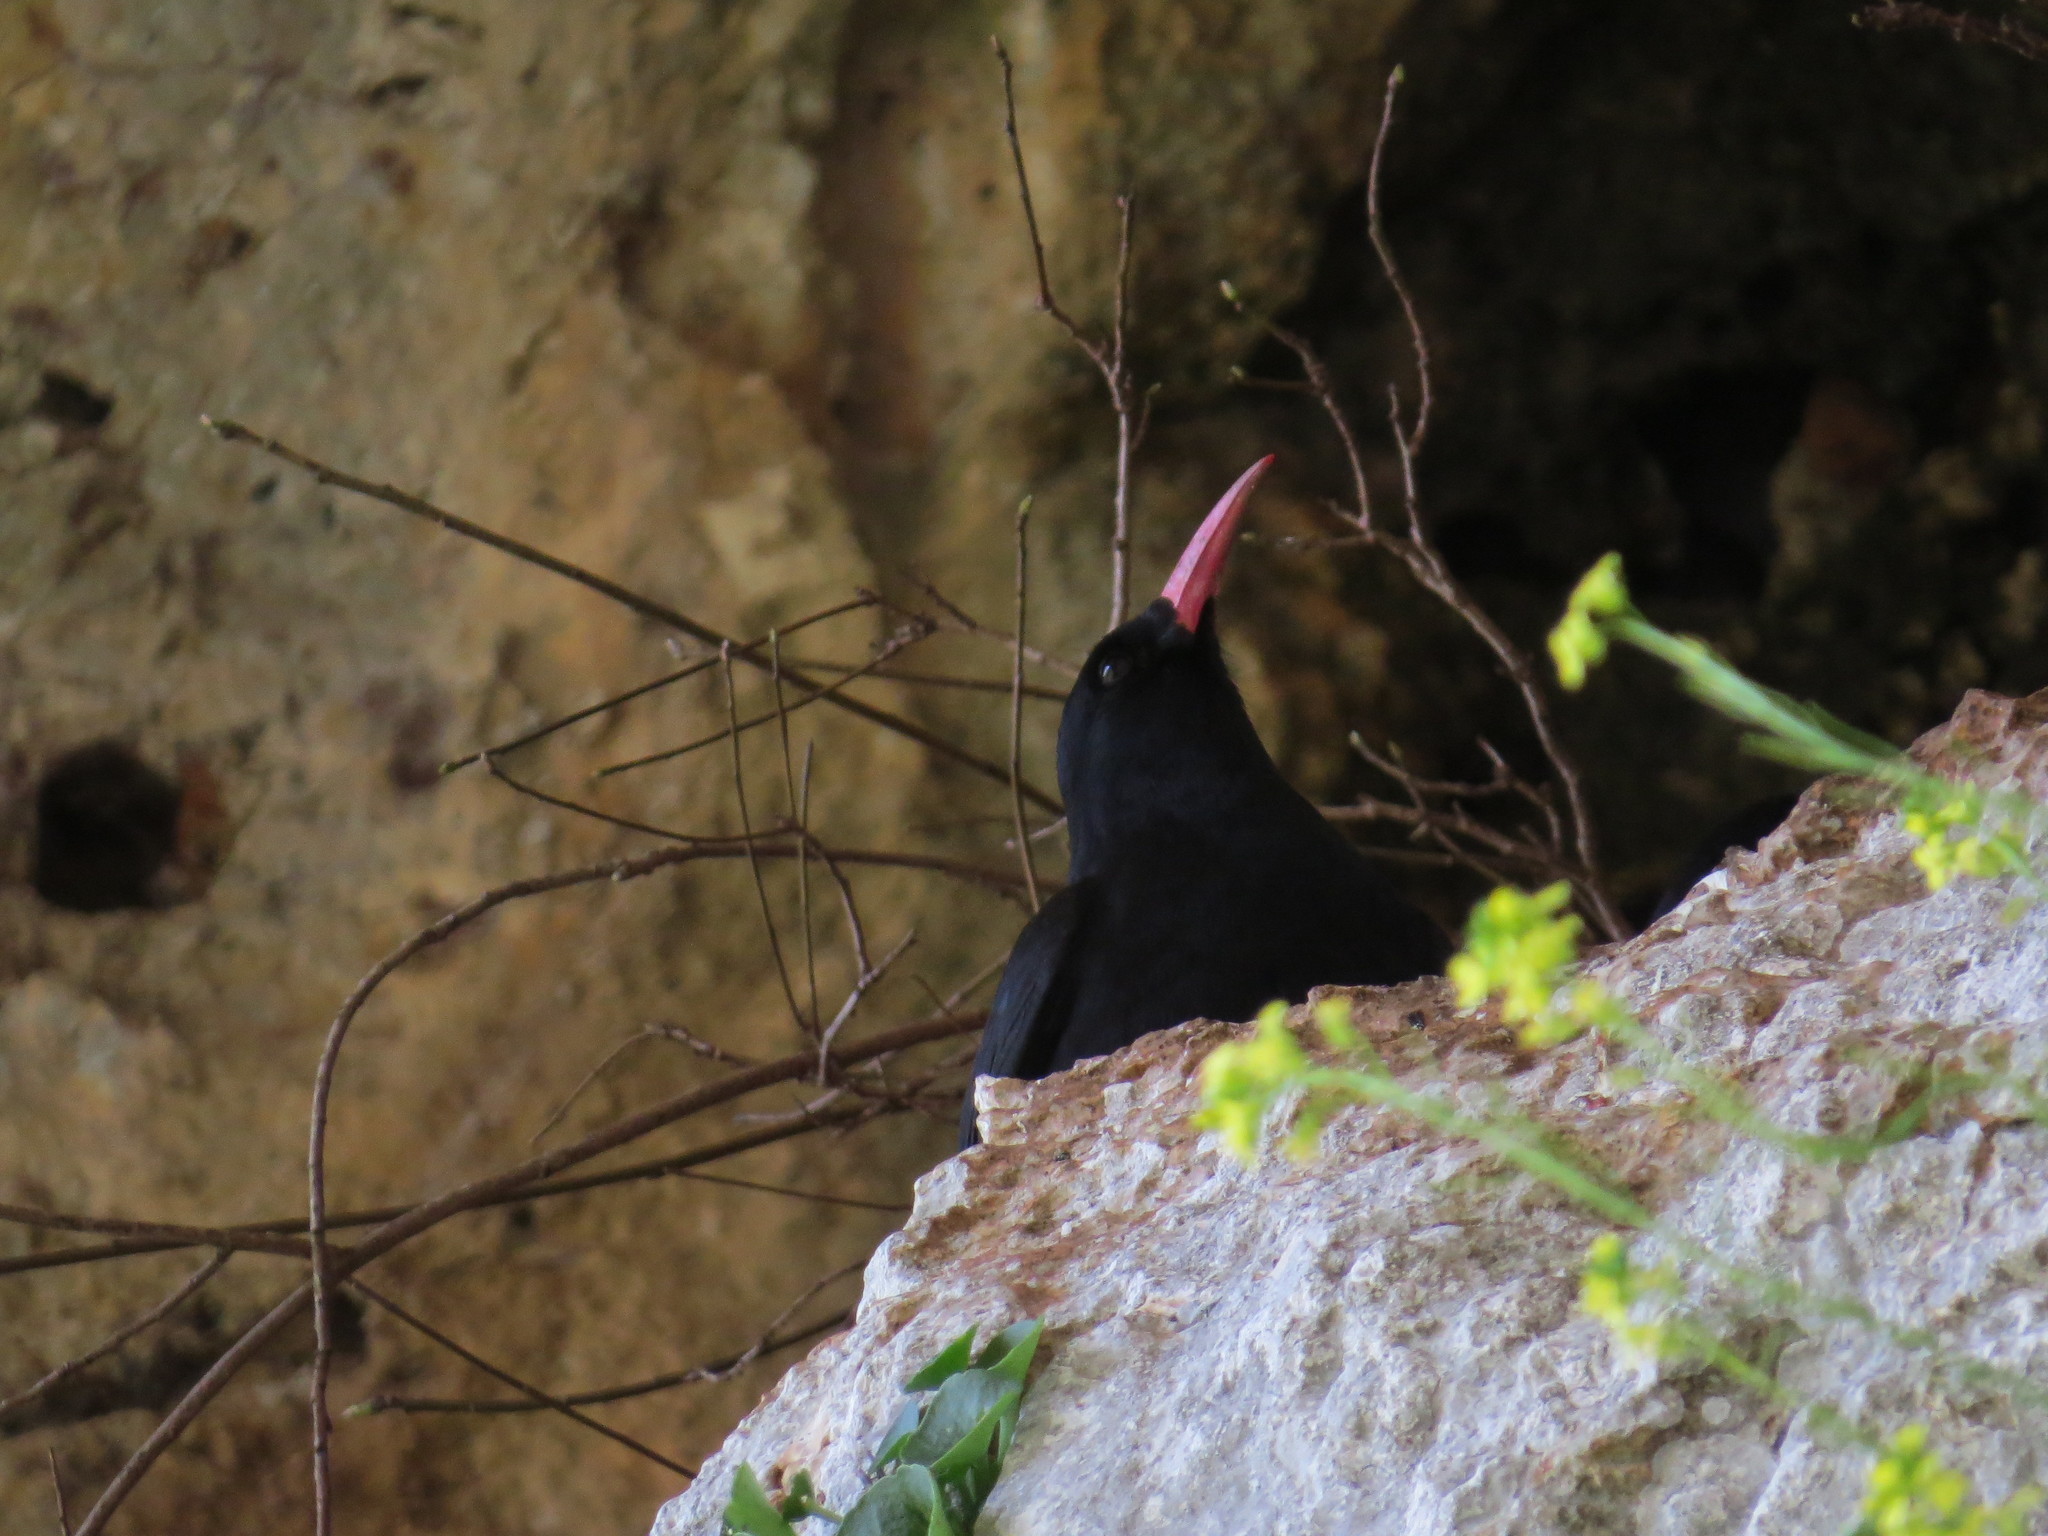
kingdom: Animalia
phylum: Chordata
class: Aves
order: Passeriformes
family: Corvidae
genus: Pyrrhocorax
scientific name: Pyrrhocorax pyrrhocorax
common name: Red-billed chough
